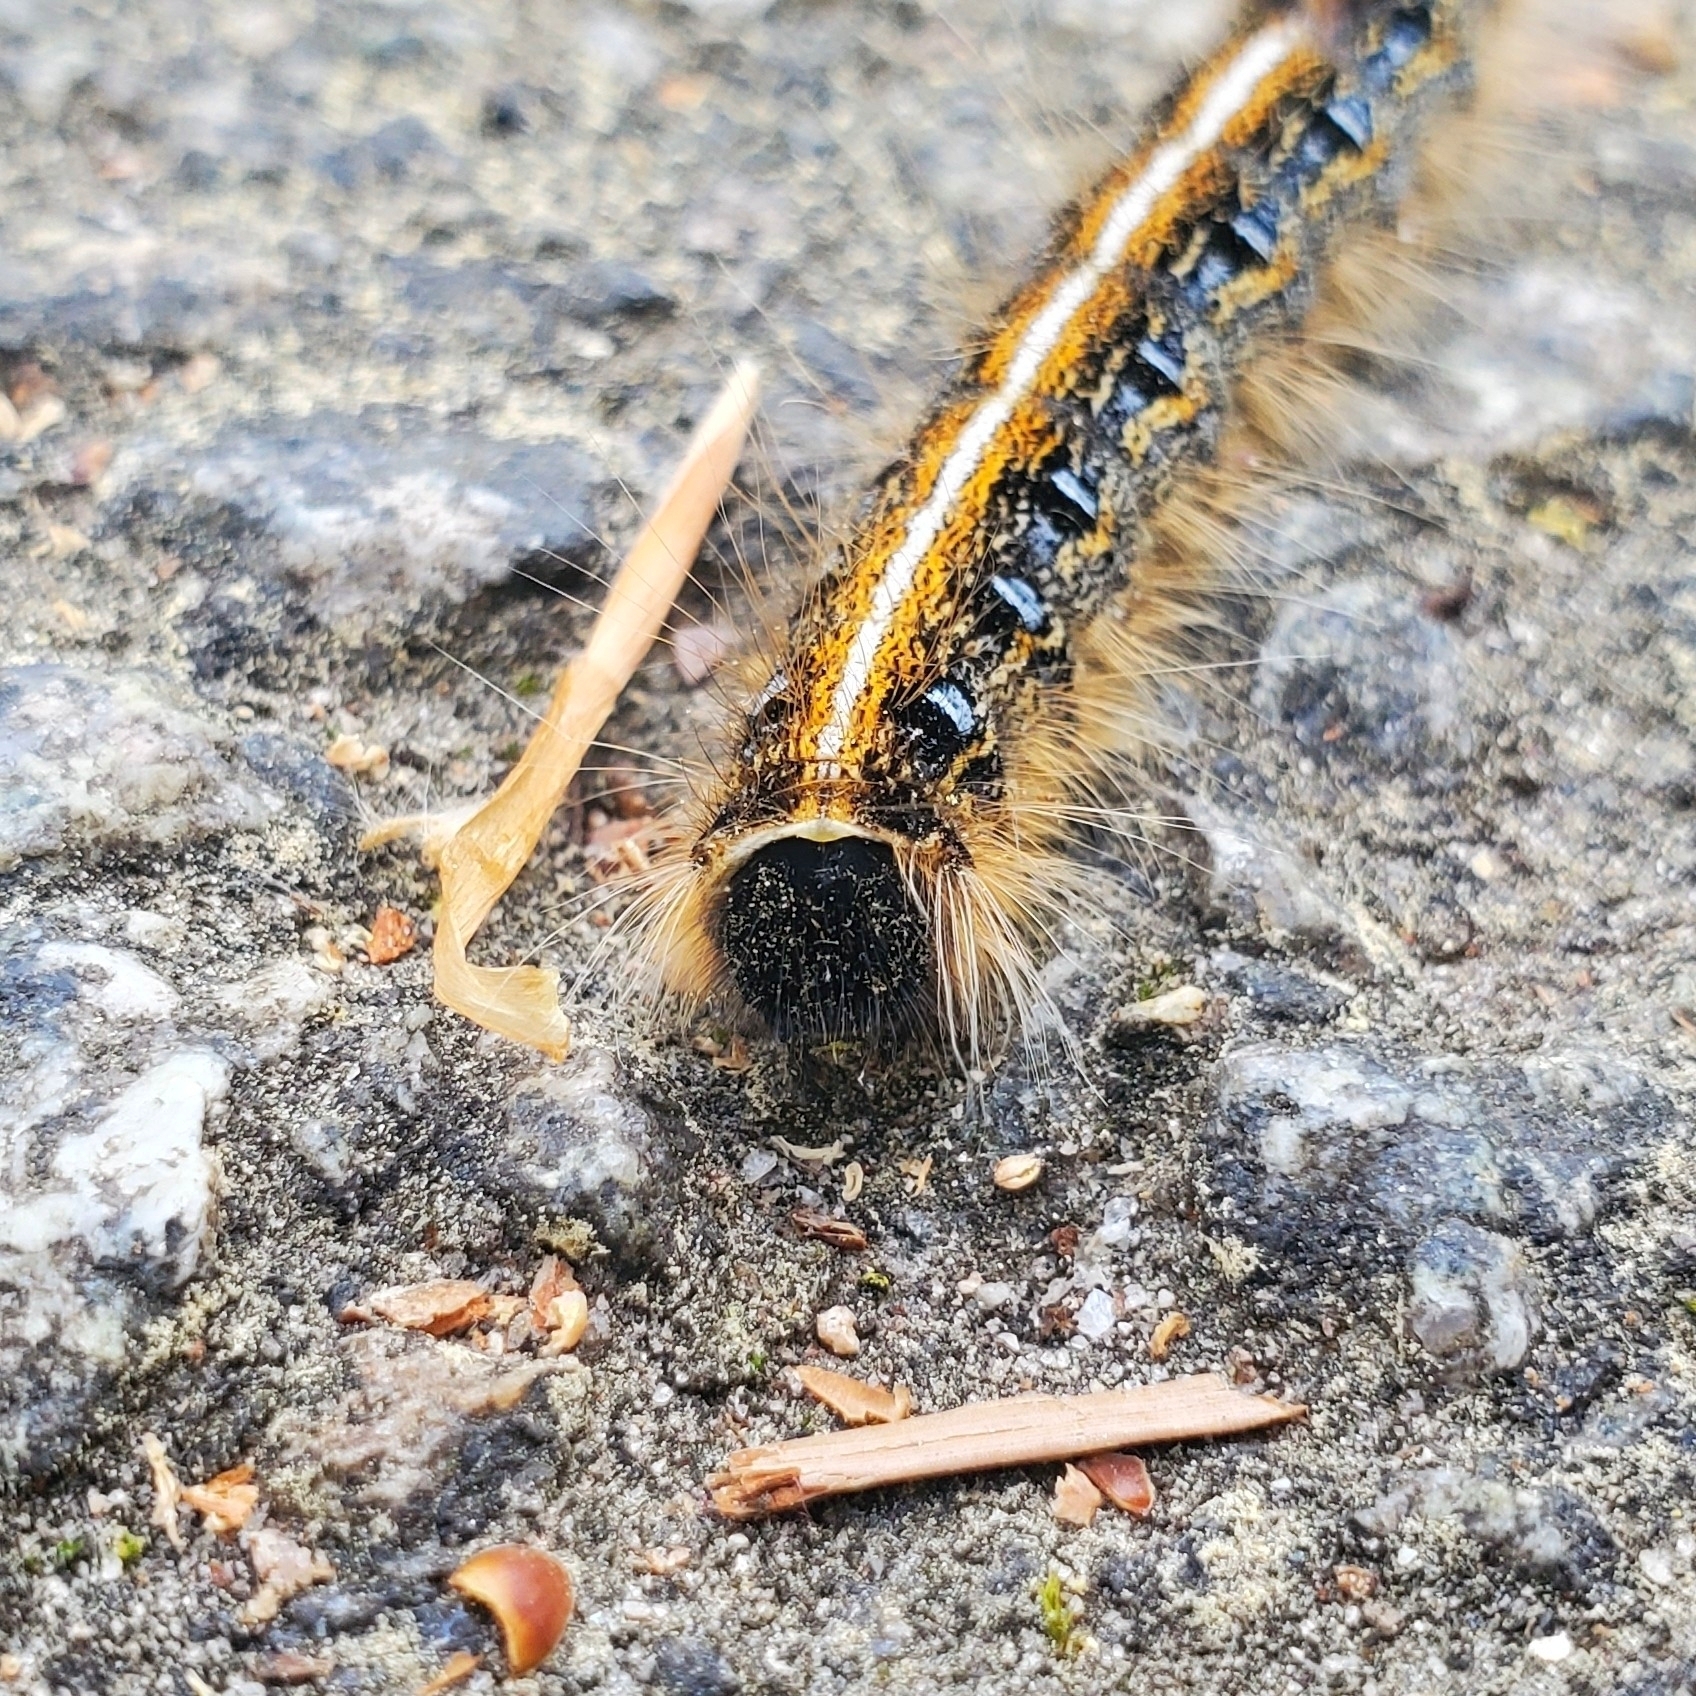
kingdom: Animalia
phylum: Arthropoda
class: Insecta
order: Lepidoptera
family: Lasiocampidae
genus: Malacosoma
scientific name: Malacosoma americana
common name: Eastern tent caterpillar moth
